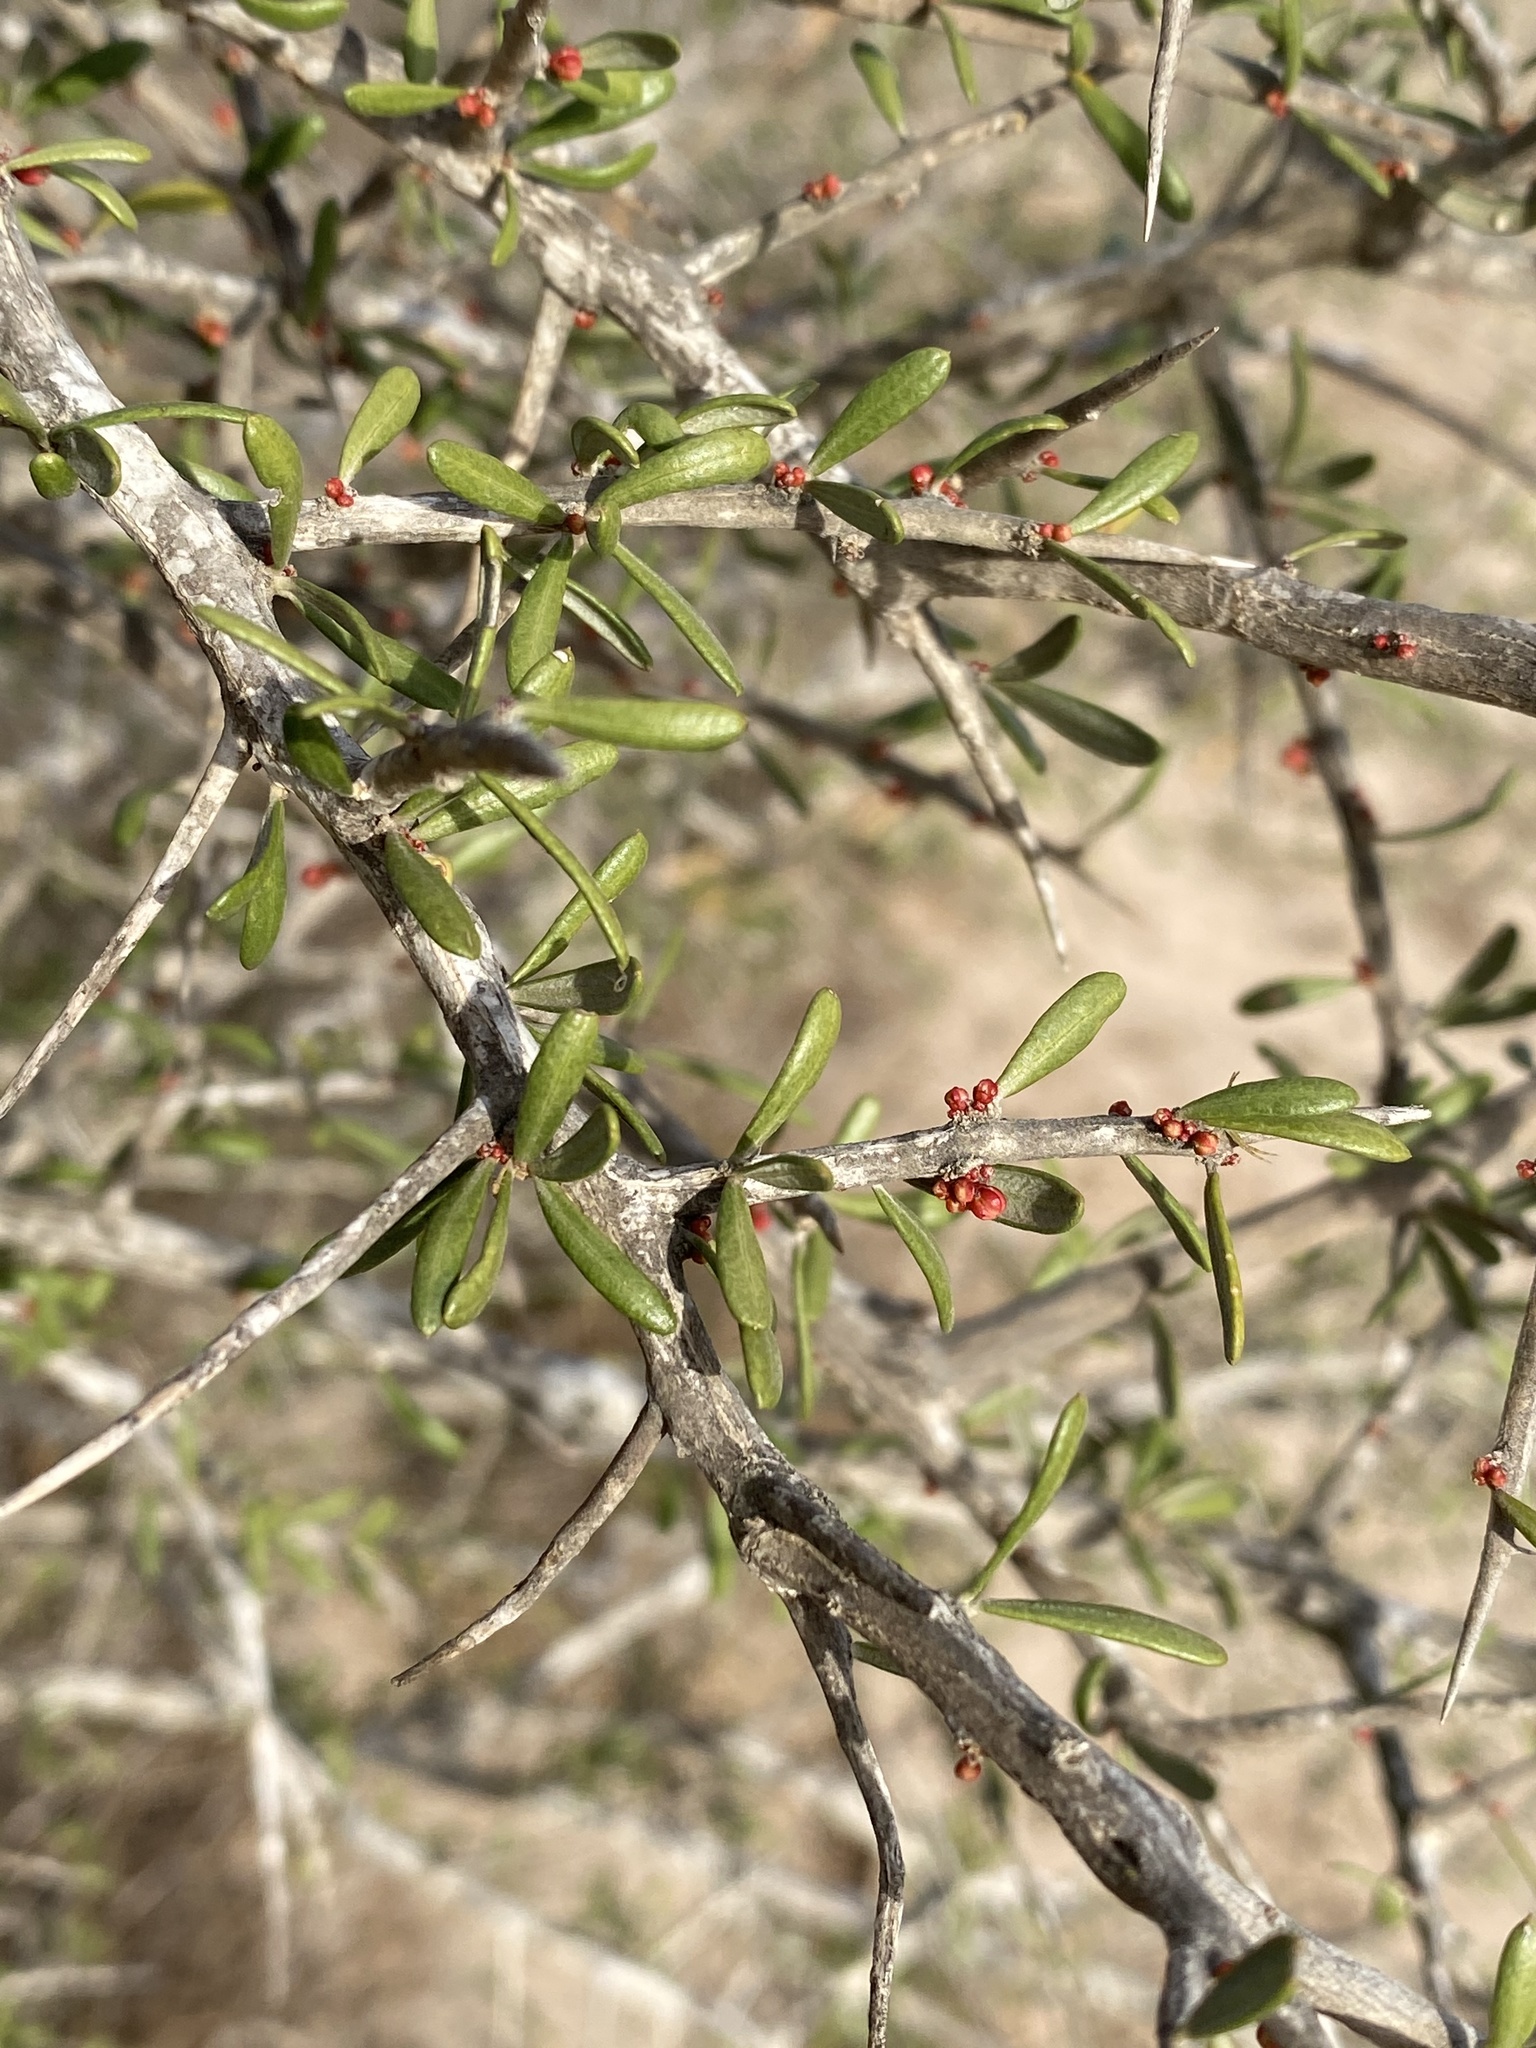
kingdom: Plantae
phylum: Tracheophyta
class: Magnoliopsida
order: Sapindales
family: Simaroubaceae
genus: Castela
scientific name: Castela erecta
